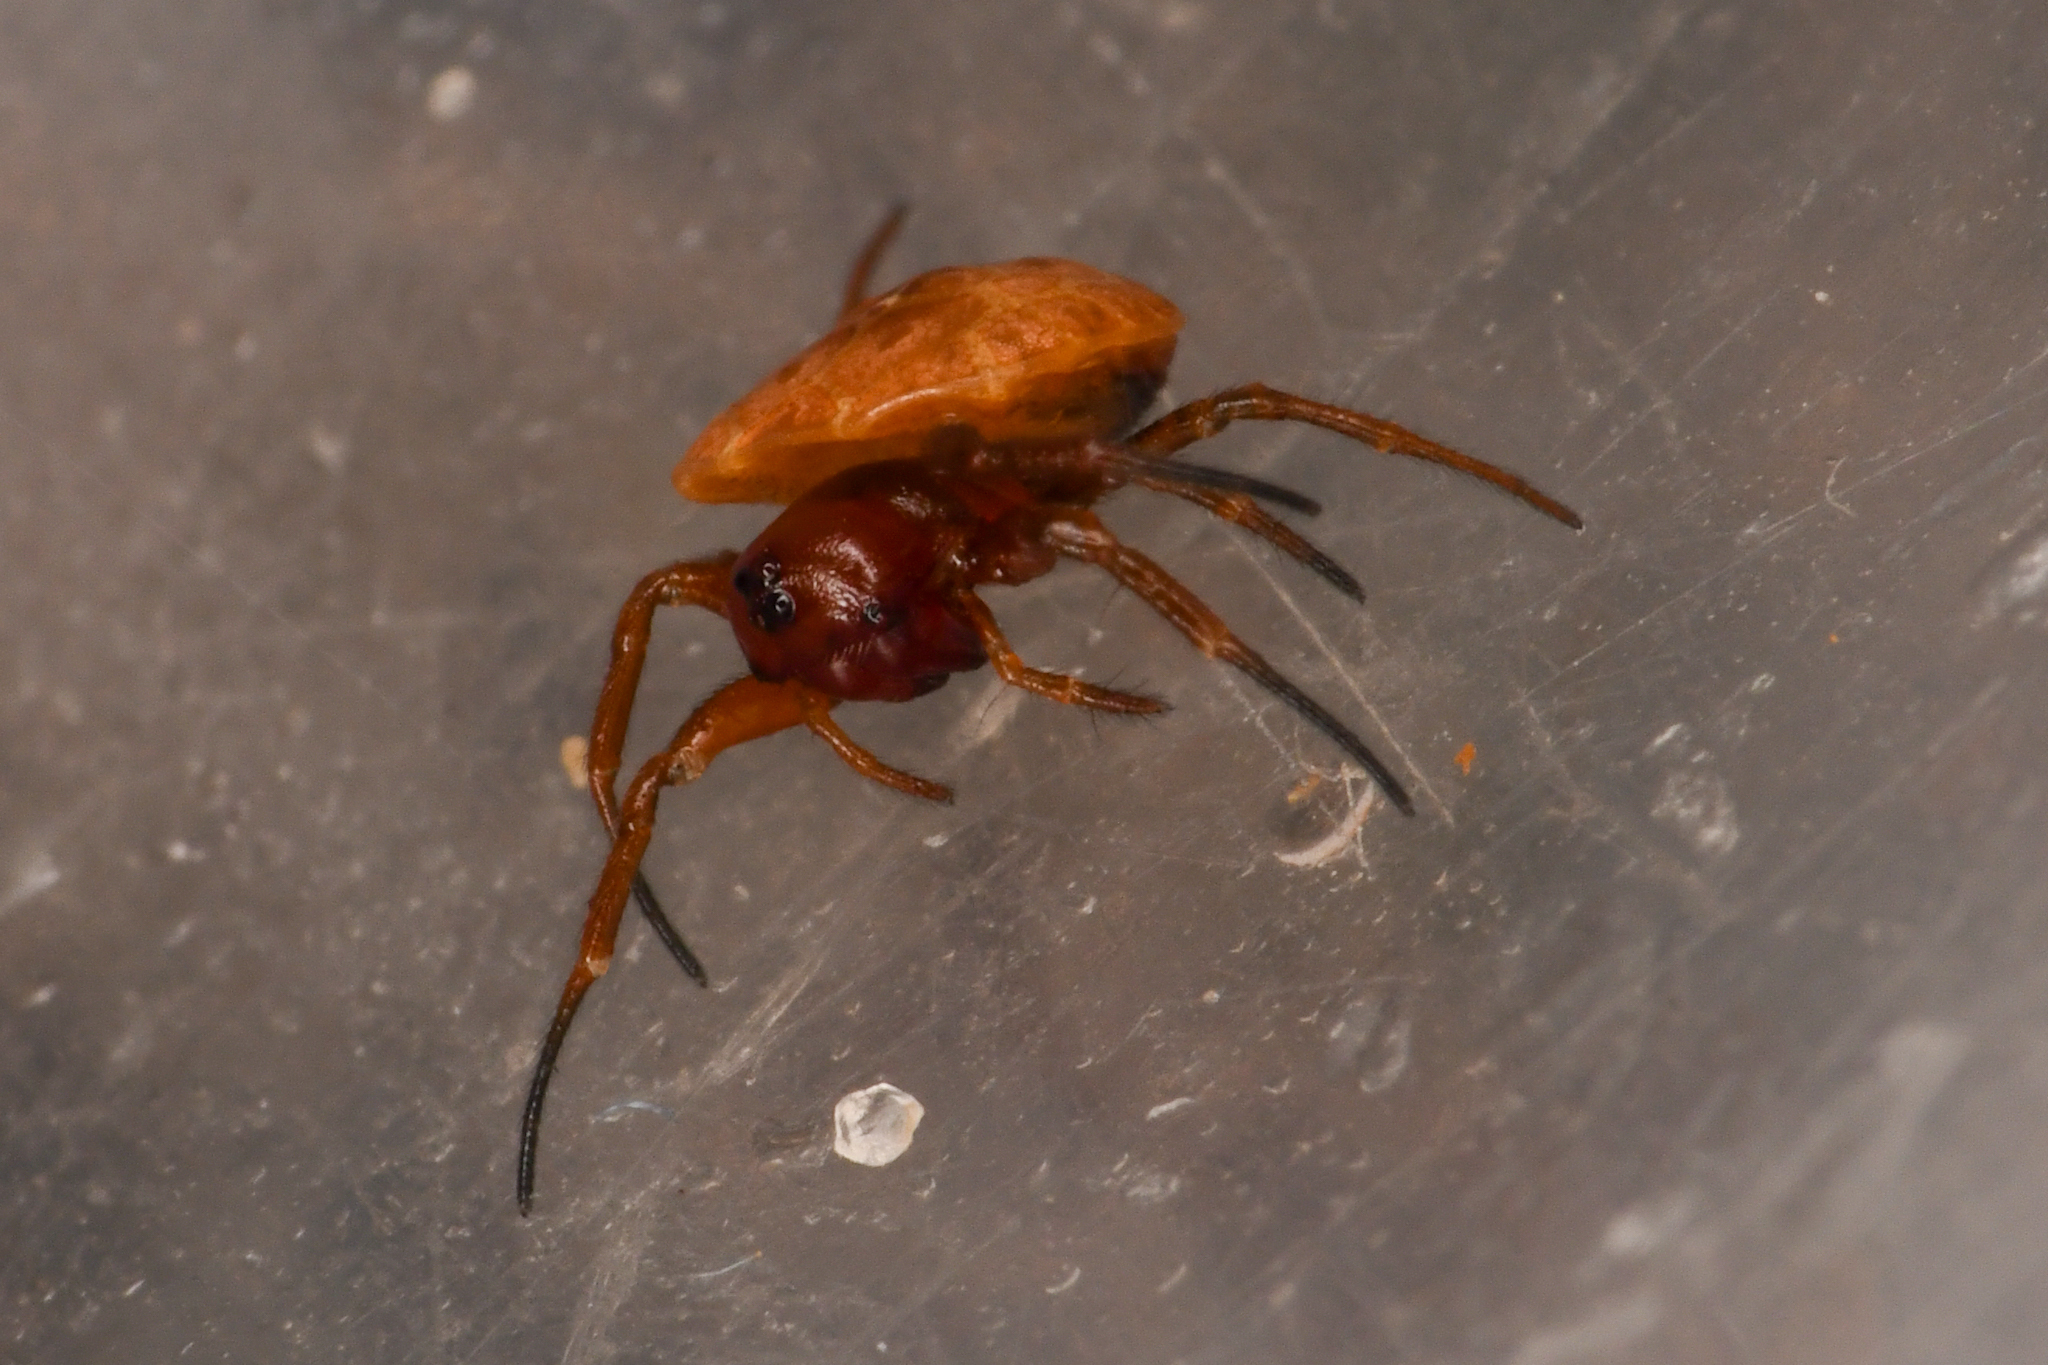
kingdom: Animalia
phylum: Arthropoda
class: Arachnida
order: Araneae
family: Araneidae
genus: Hypognatha
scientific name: Hypognatha elaborata
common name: Orb weavers
